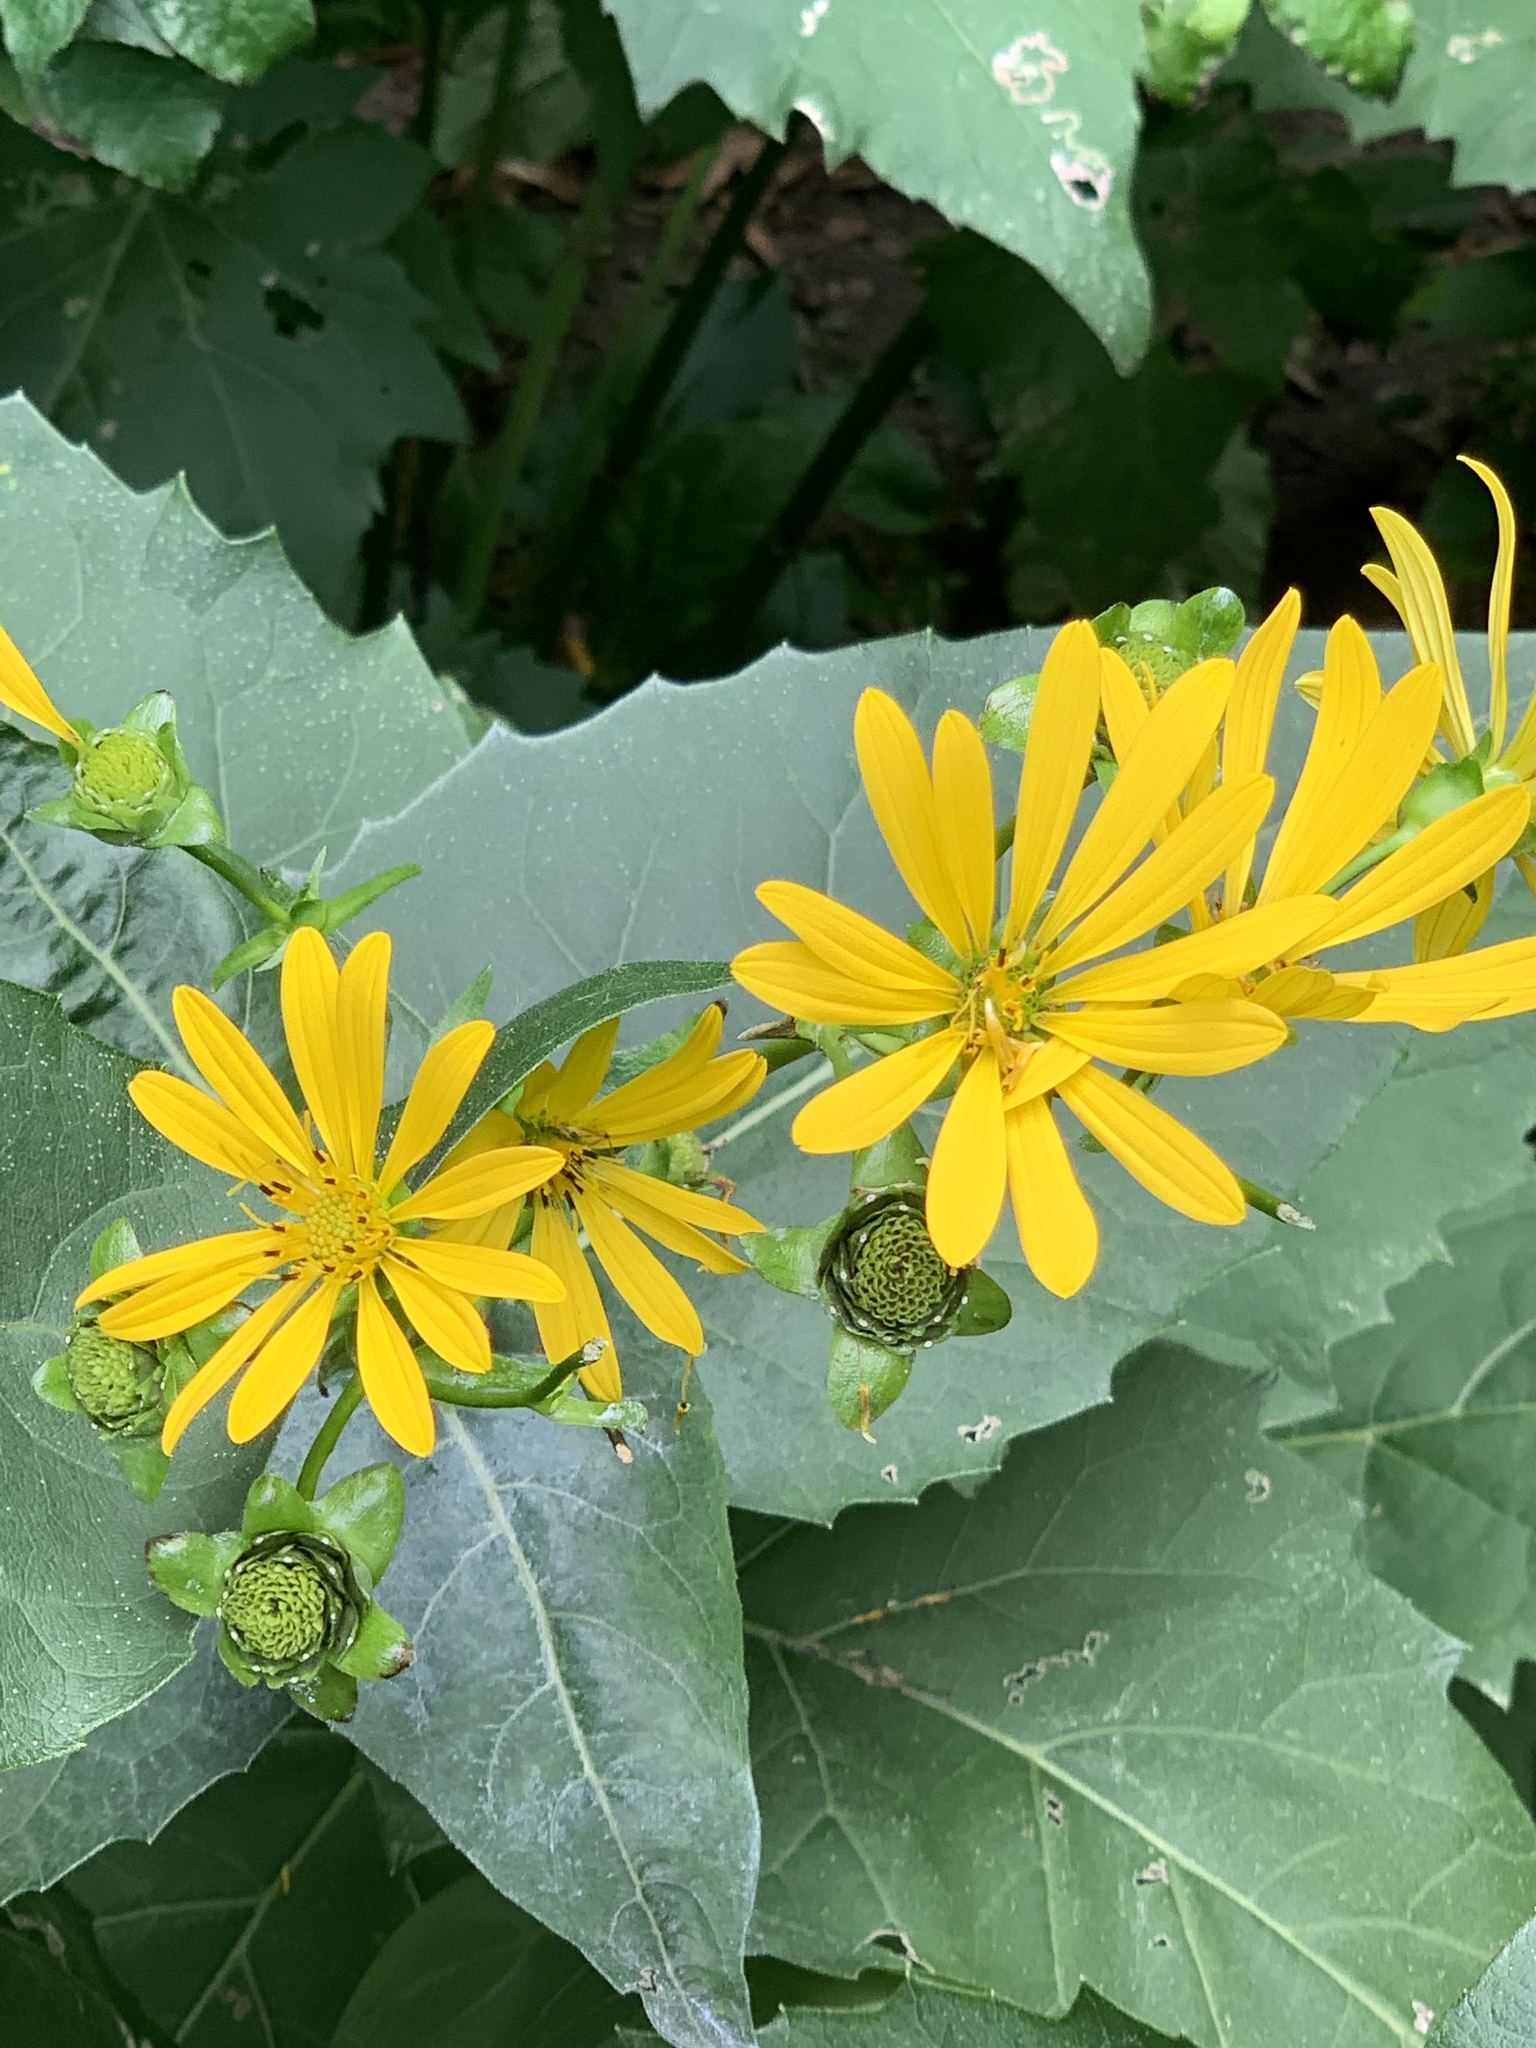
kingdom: Plantae
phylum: Tracheophyta
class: Magnoliopsida
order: Asterales
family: Asteraceae
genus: Silphium
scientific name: Silphium perfoliatum
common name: Cup-plant
